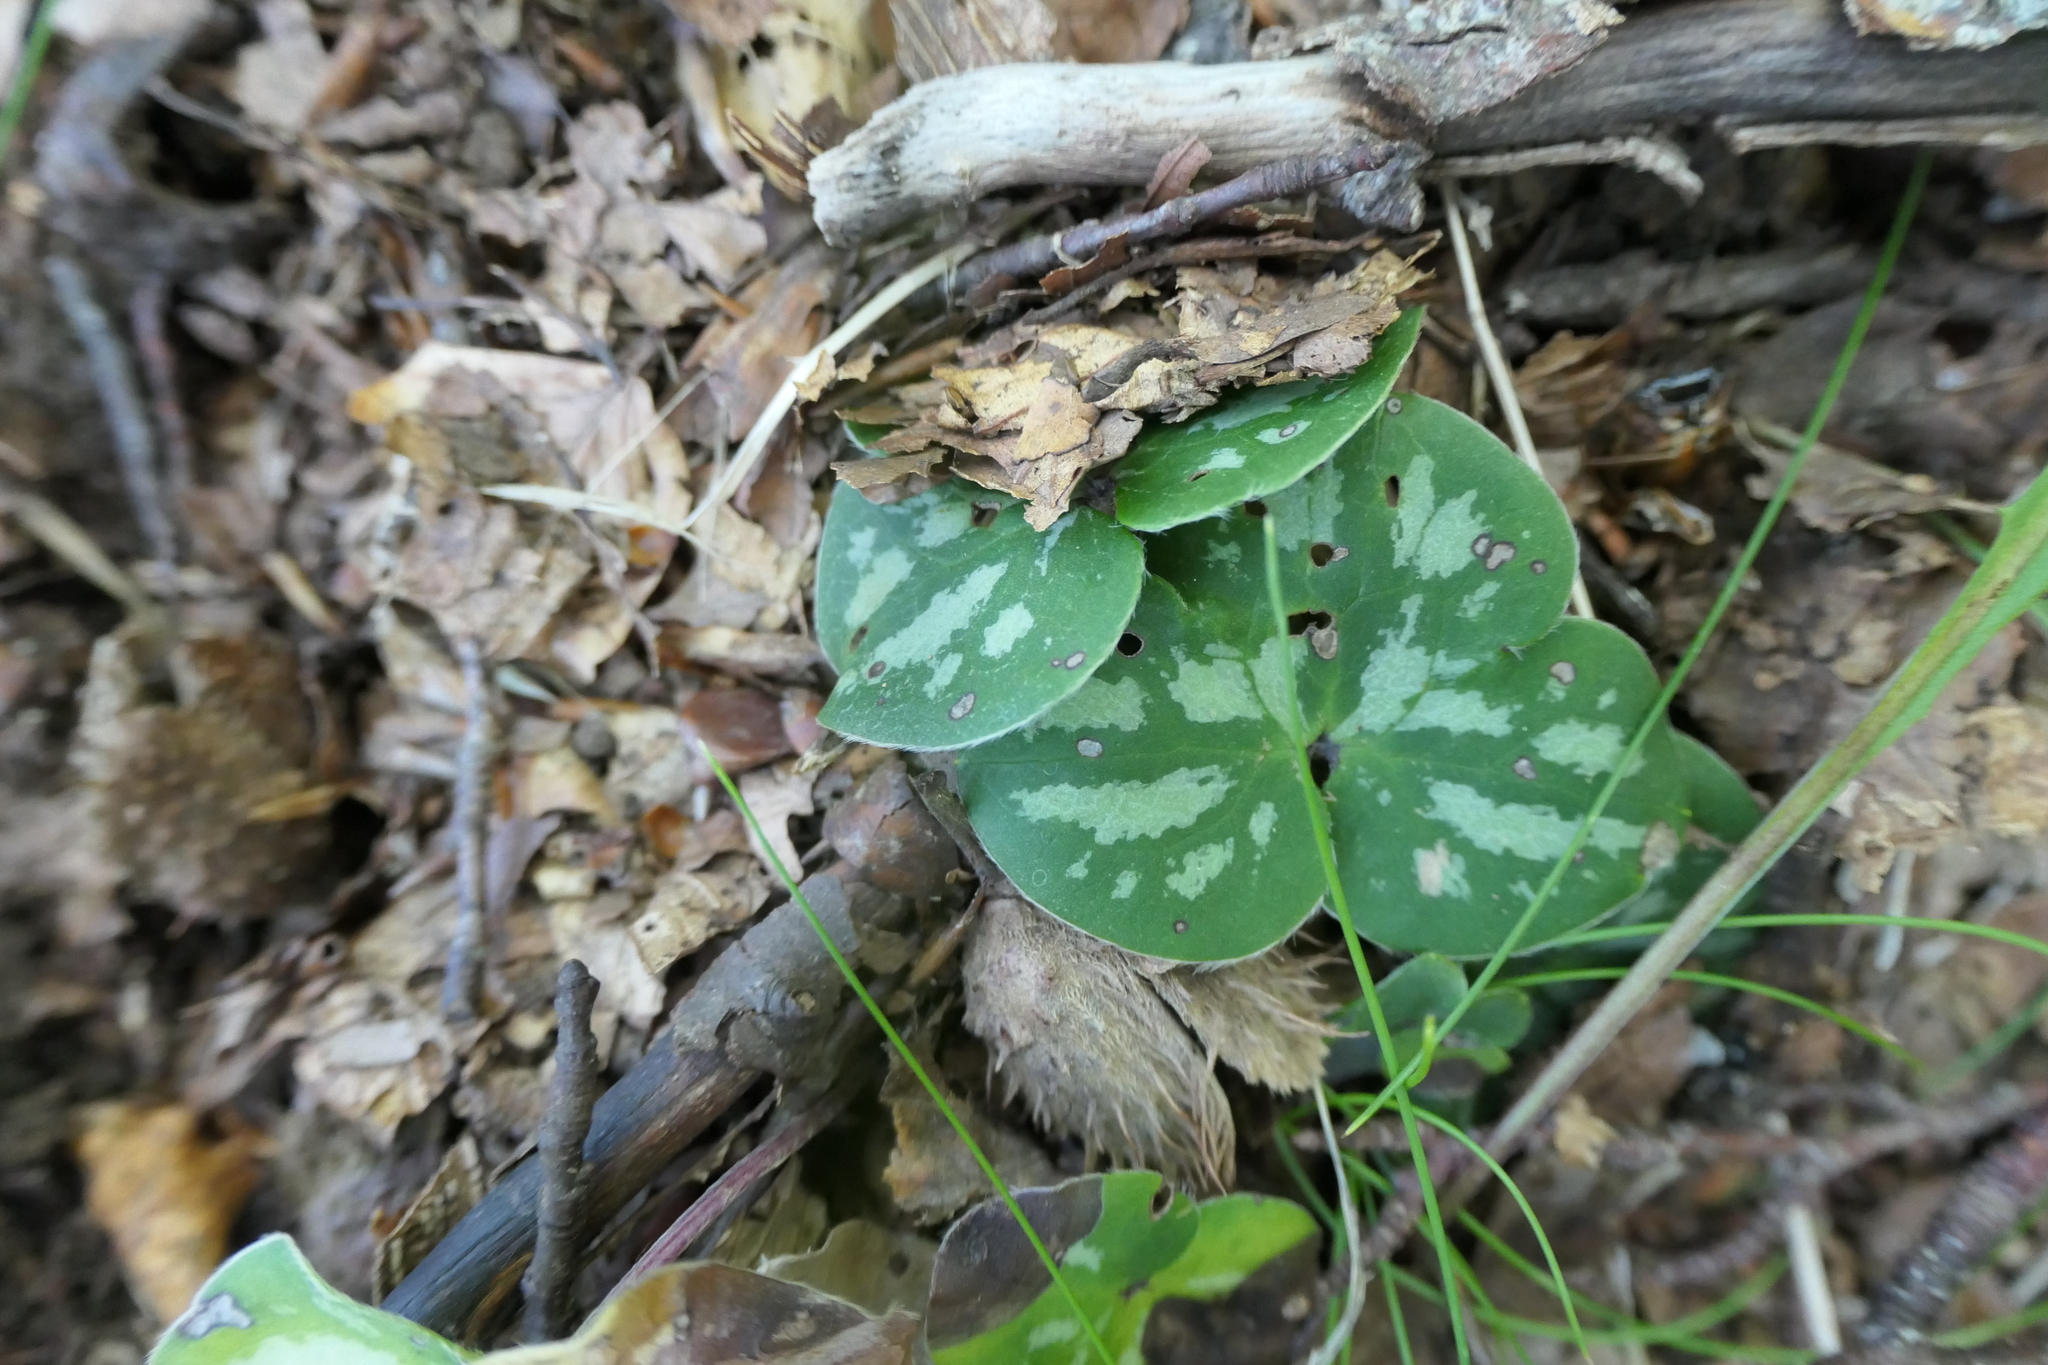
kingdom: Plantae
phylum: Tracheophyta
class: Magnoliopsida
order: Ranunculales
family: Ranunculaceae
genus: Hepatica
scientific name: Hepatica nobilis
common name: Liverleaf
